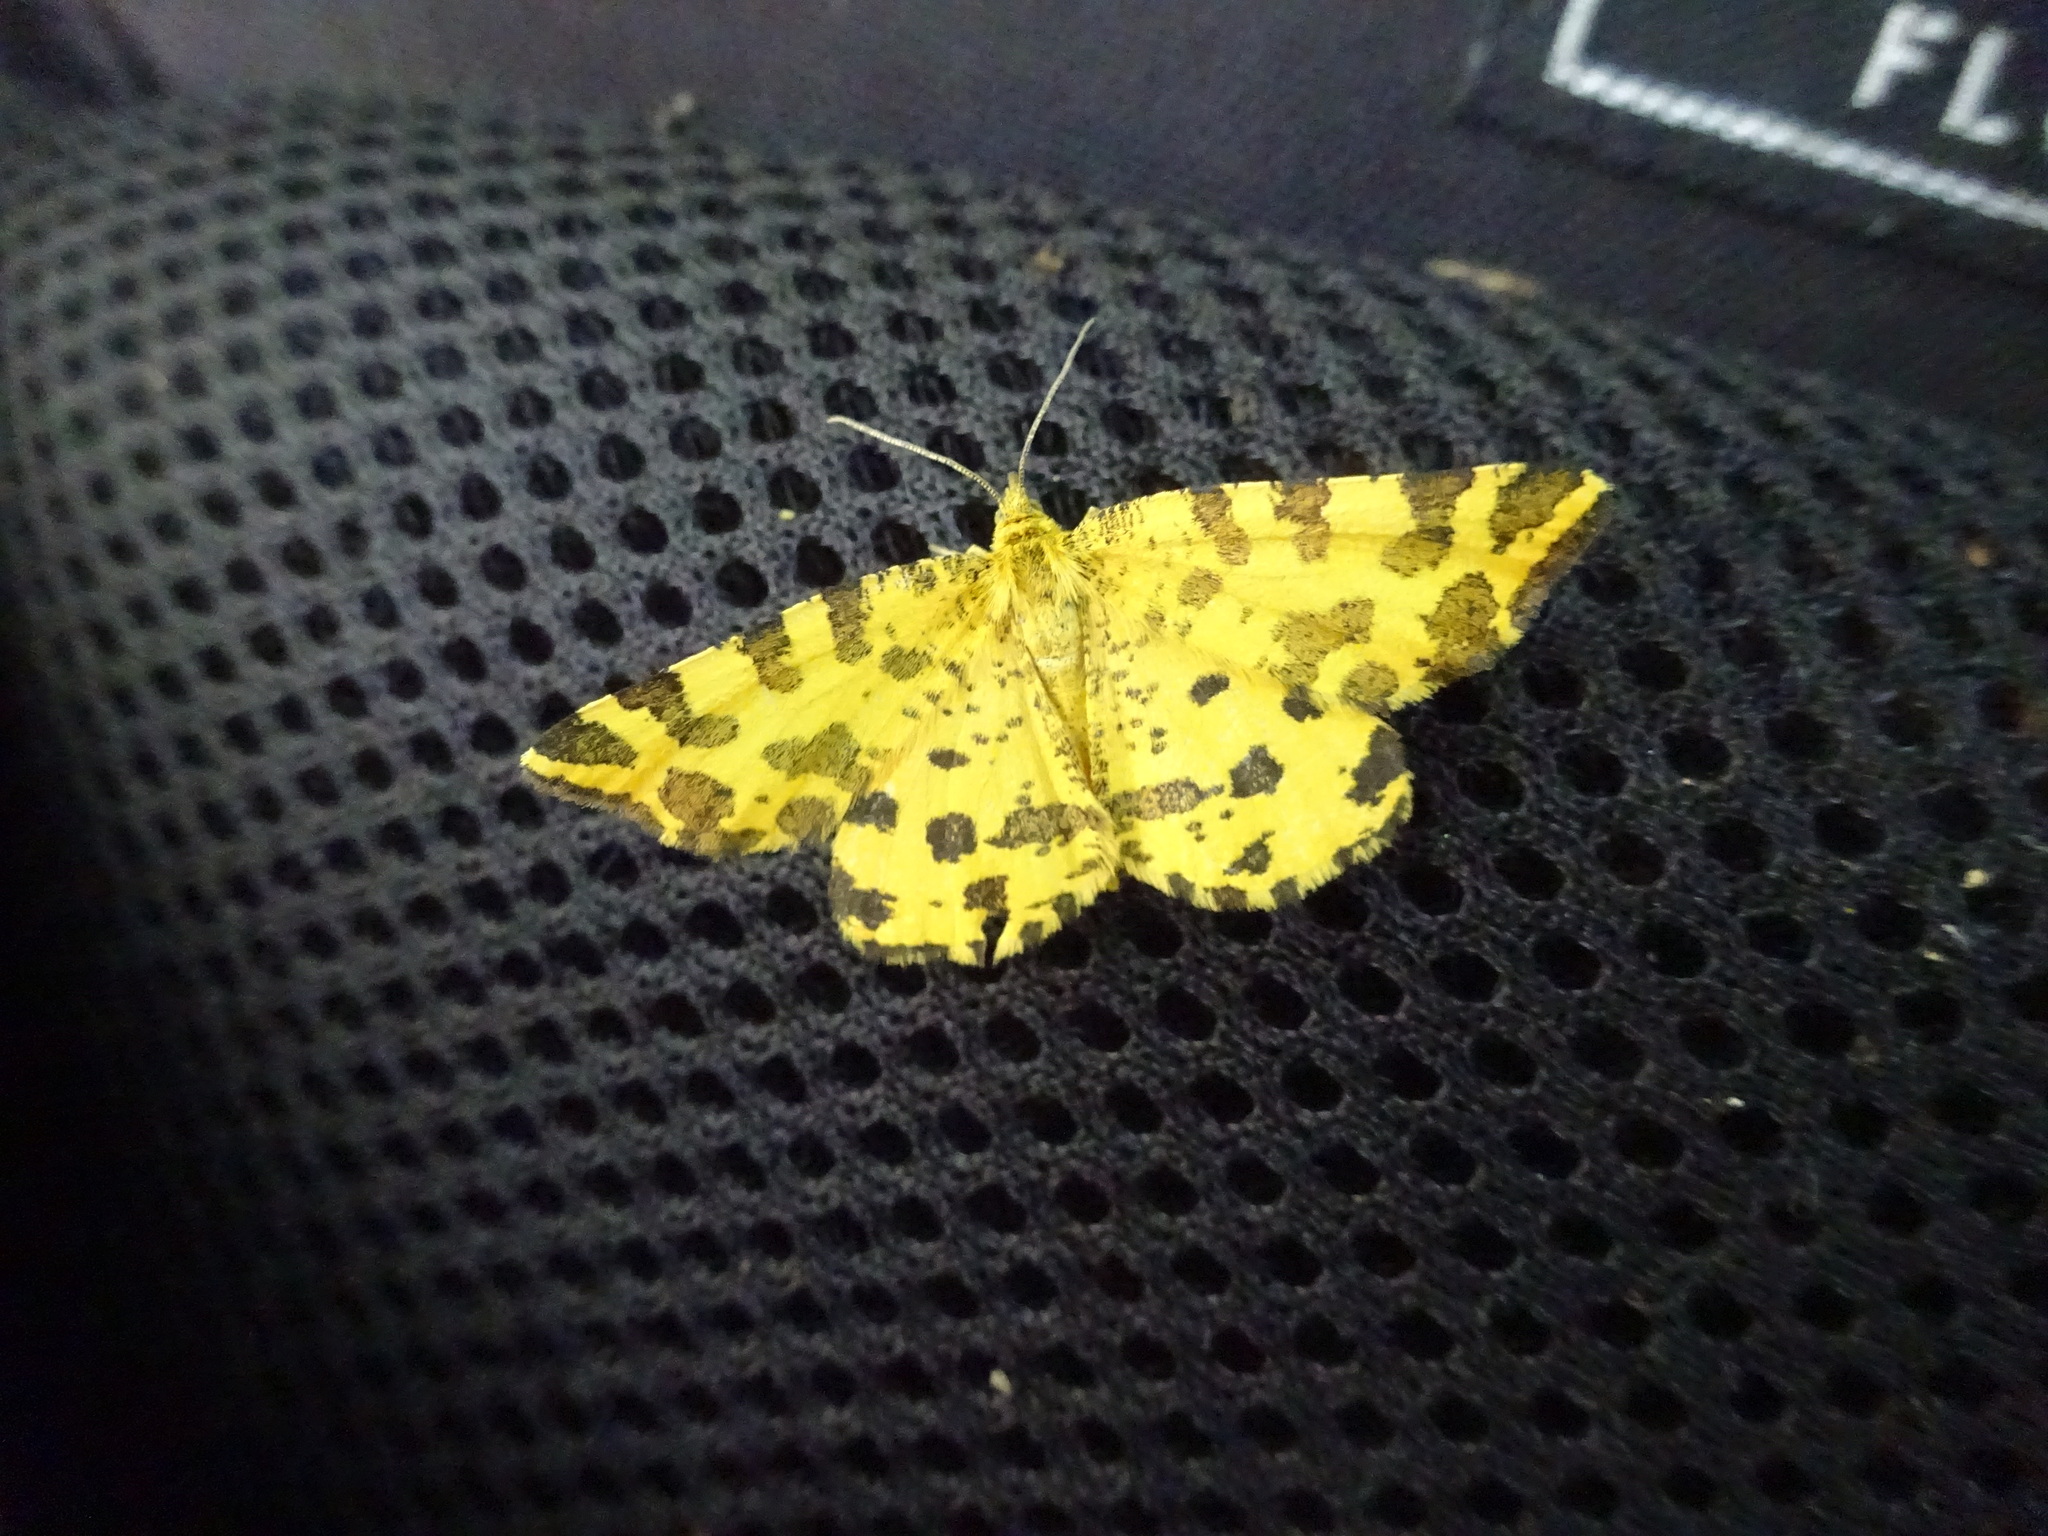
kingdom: Animalia
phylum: Arthropoda
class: Insecta
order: Lepidoptera
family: Geometridae
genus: Pseudopanthera
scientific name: Pseudopanthera macularia
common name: Speckled yellow
